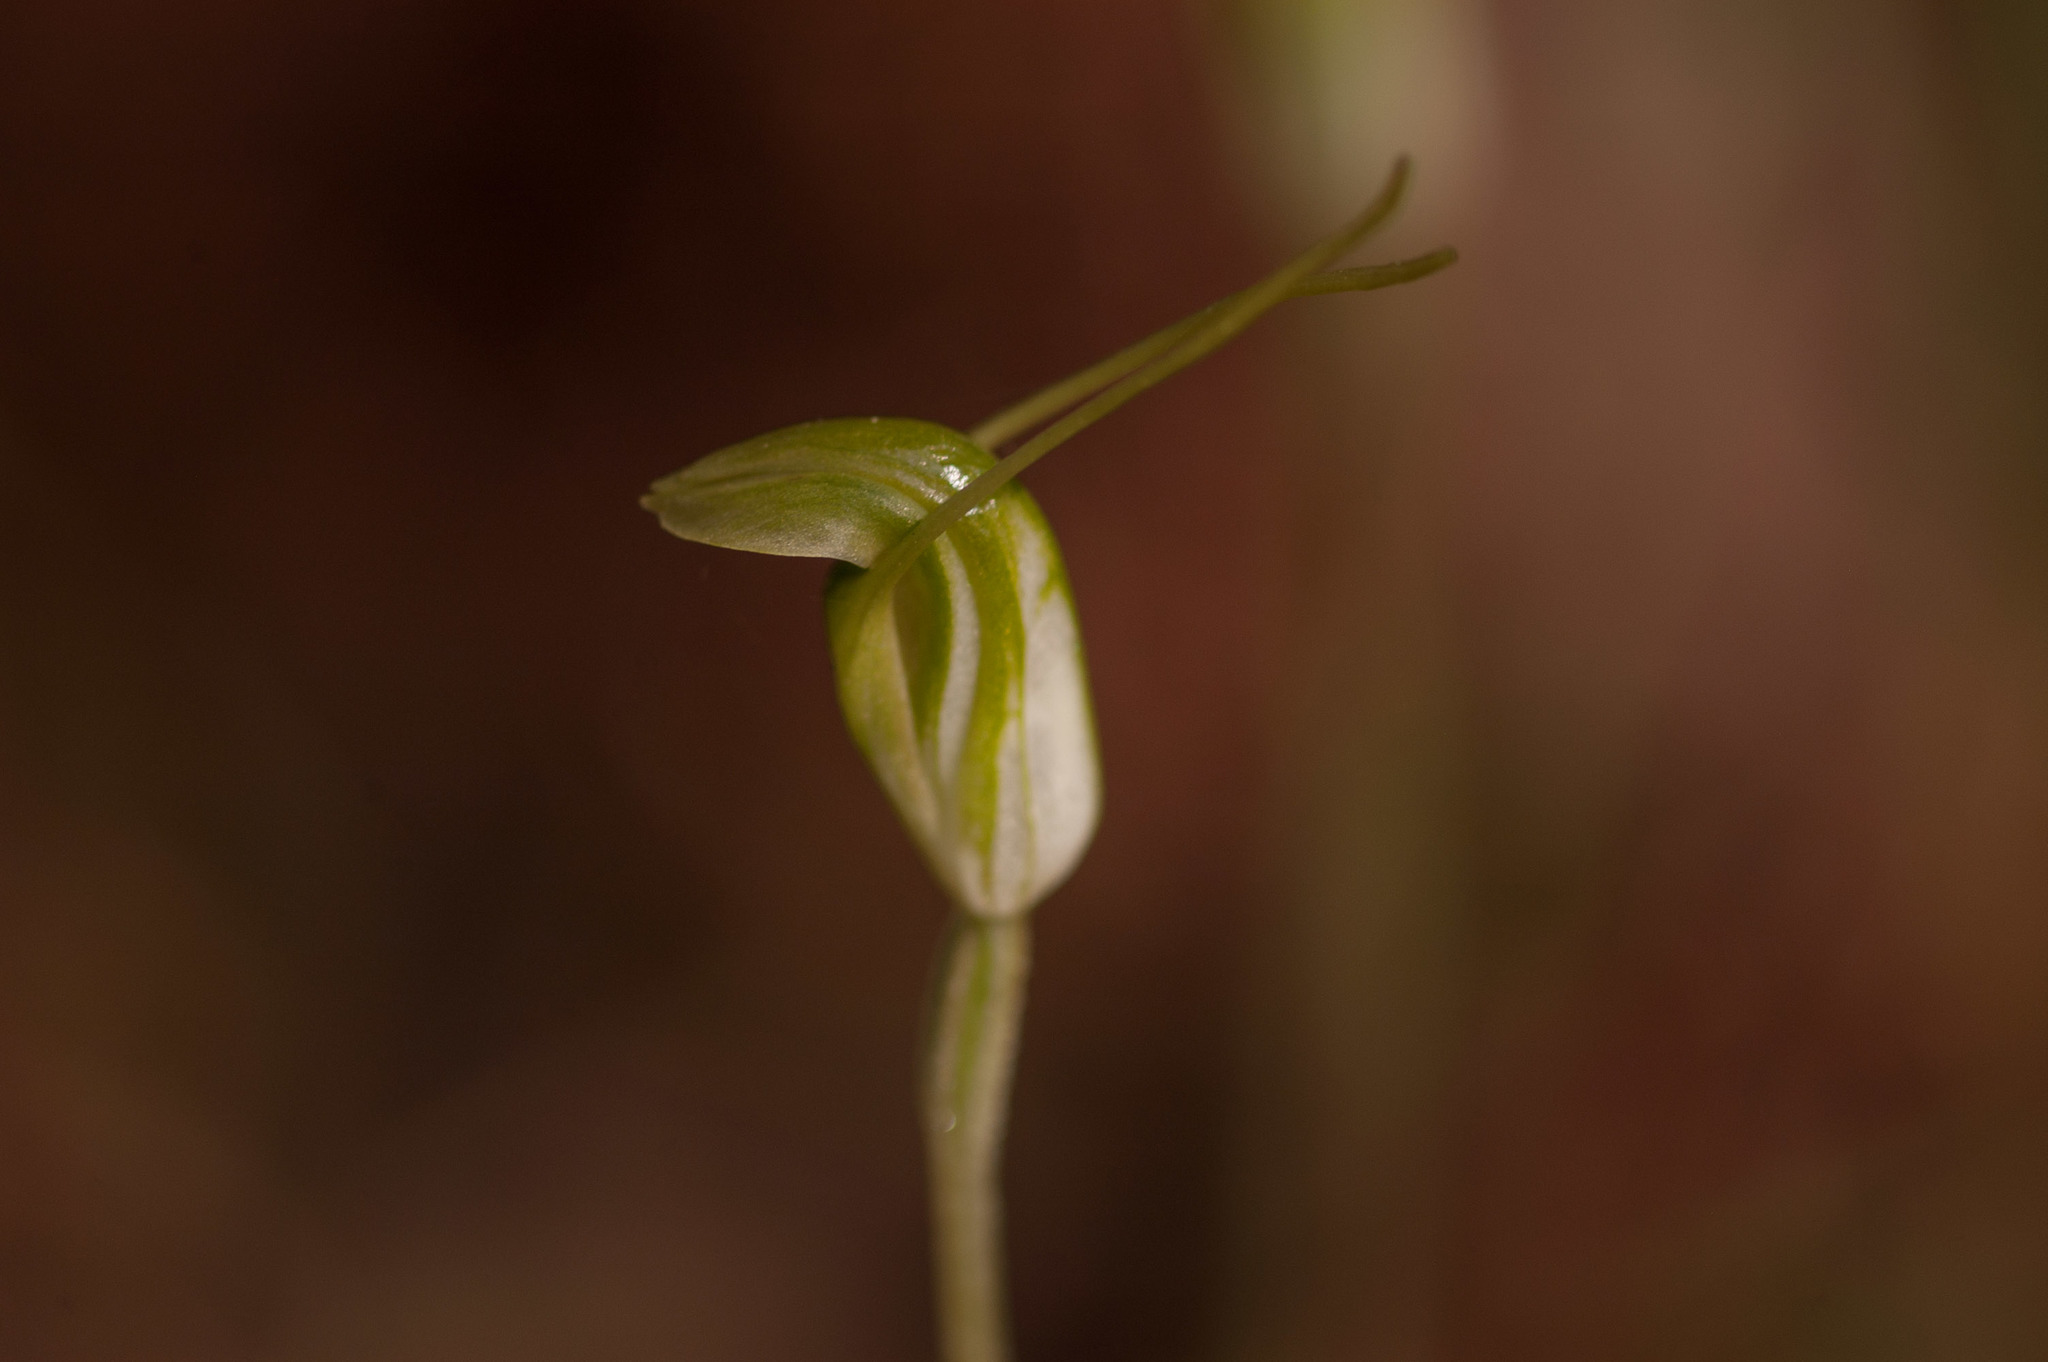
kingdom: Plantae
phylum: Tracheophyta
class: Liliopsida
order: Asparagales
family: Orchidaceae
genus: Pterostylis
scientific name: Pterostylis nana
